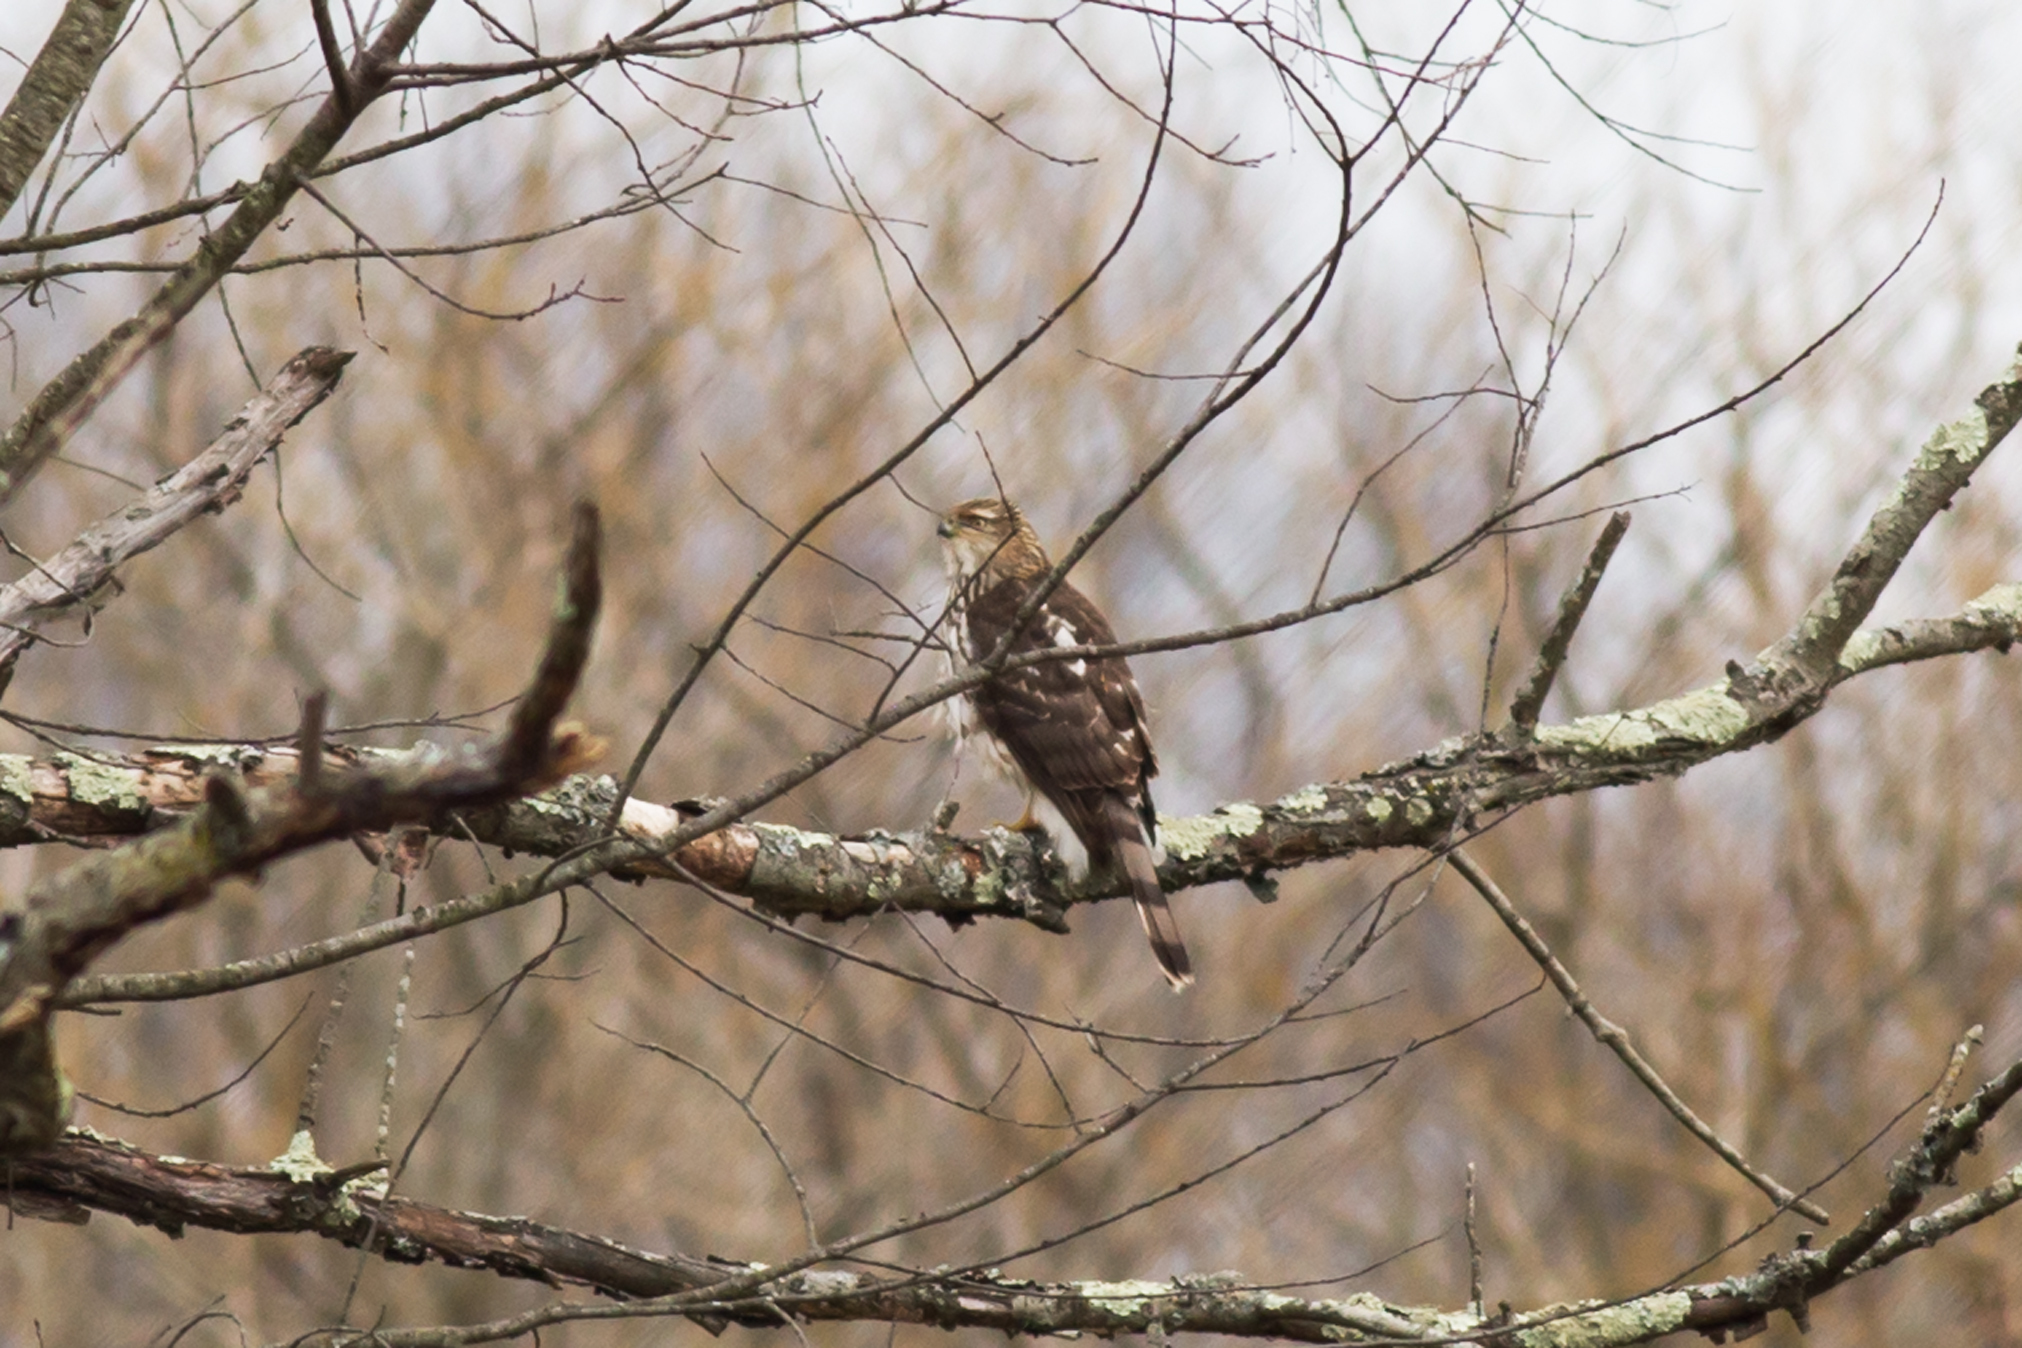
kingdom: Animalia
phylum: Chordata
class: Aves
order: Accipitriformes
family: Accipitridae
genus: Accipiter
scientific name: Accipiter cooperii
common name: Cooper's hawk
